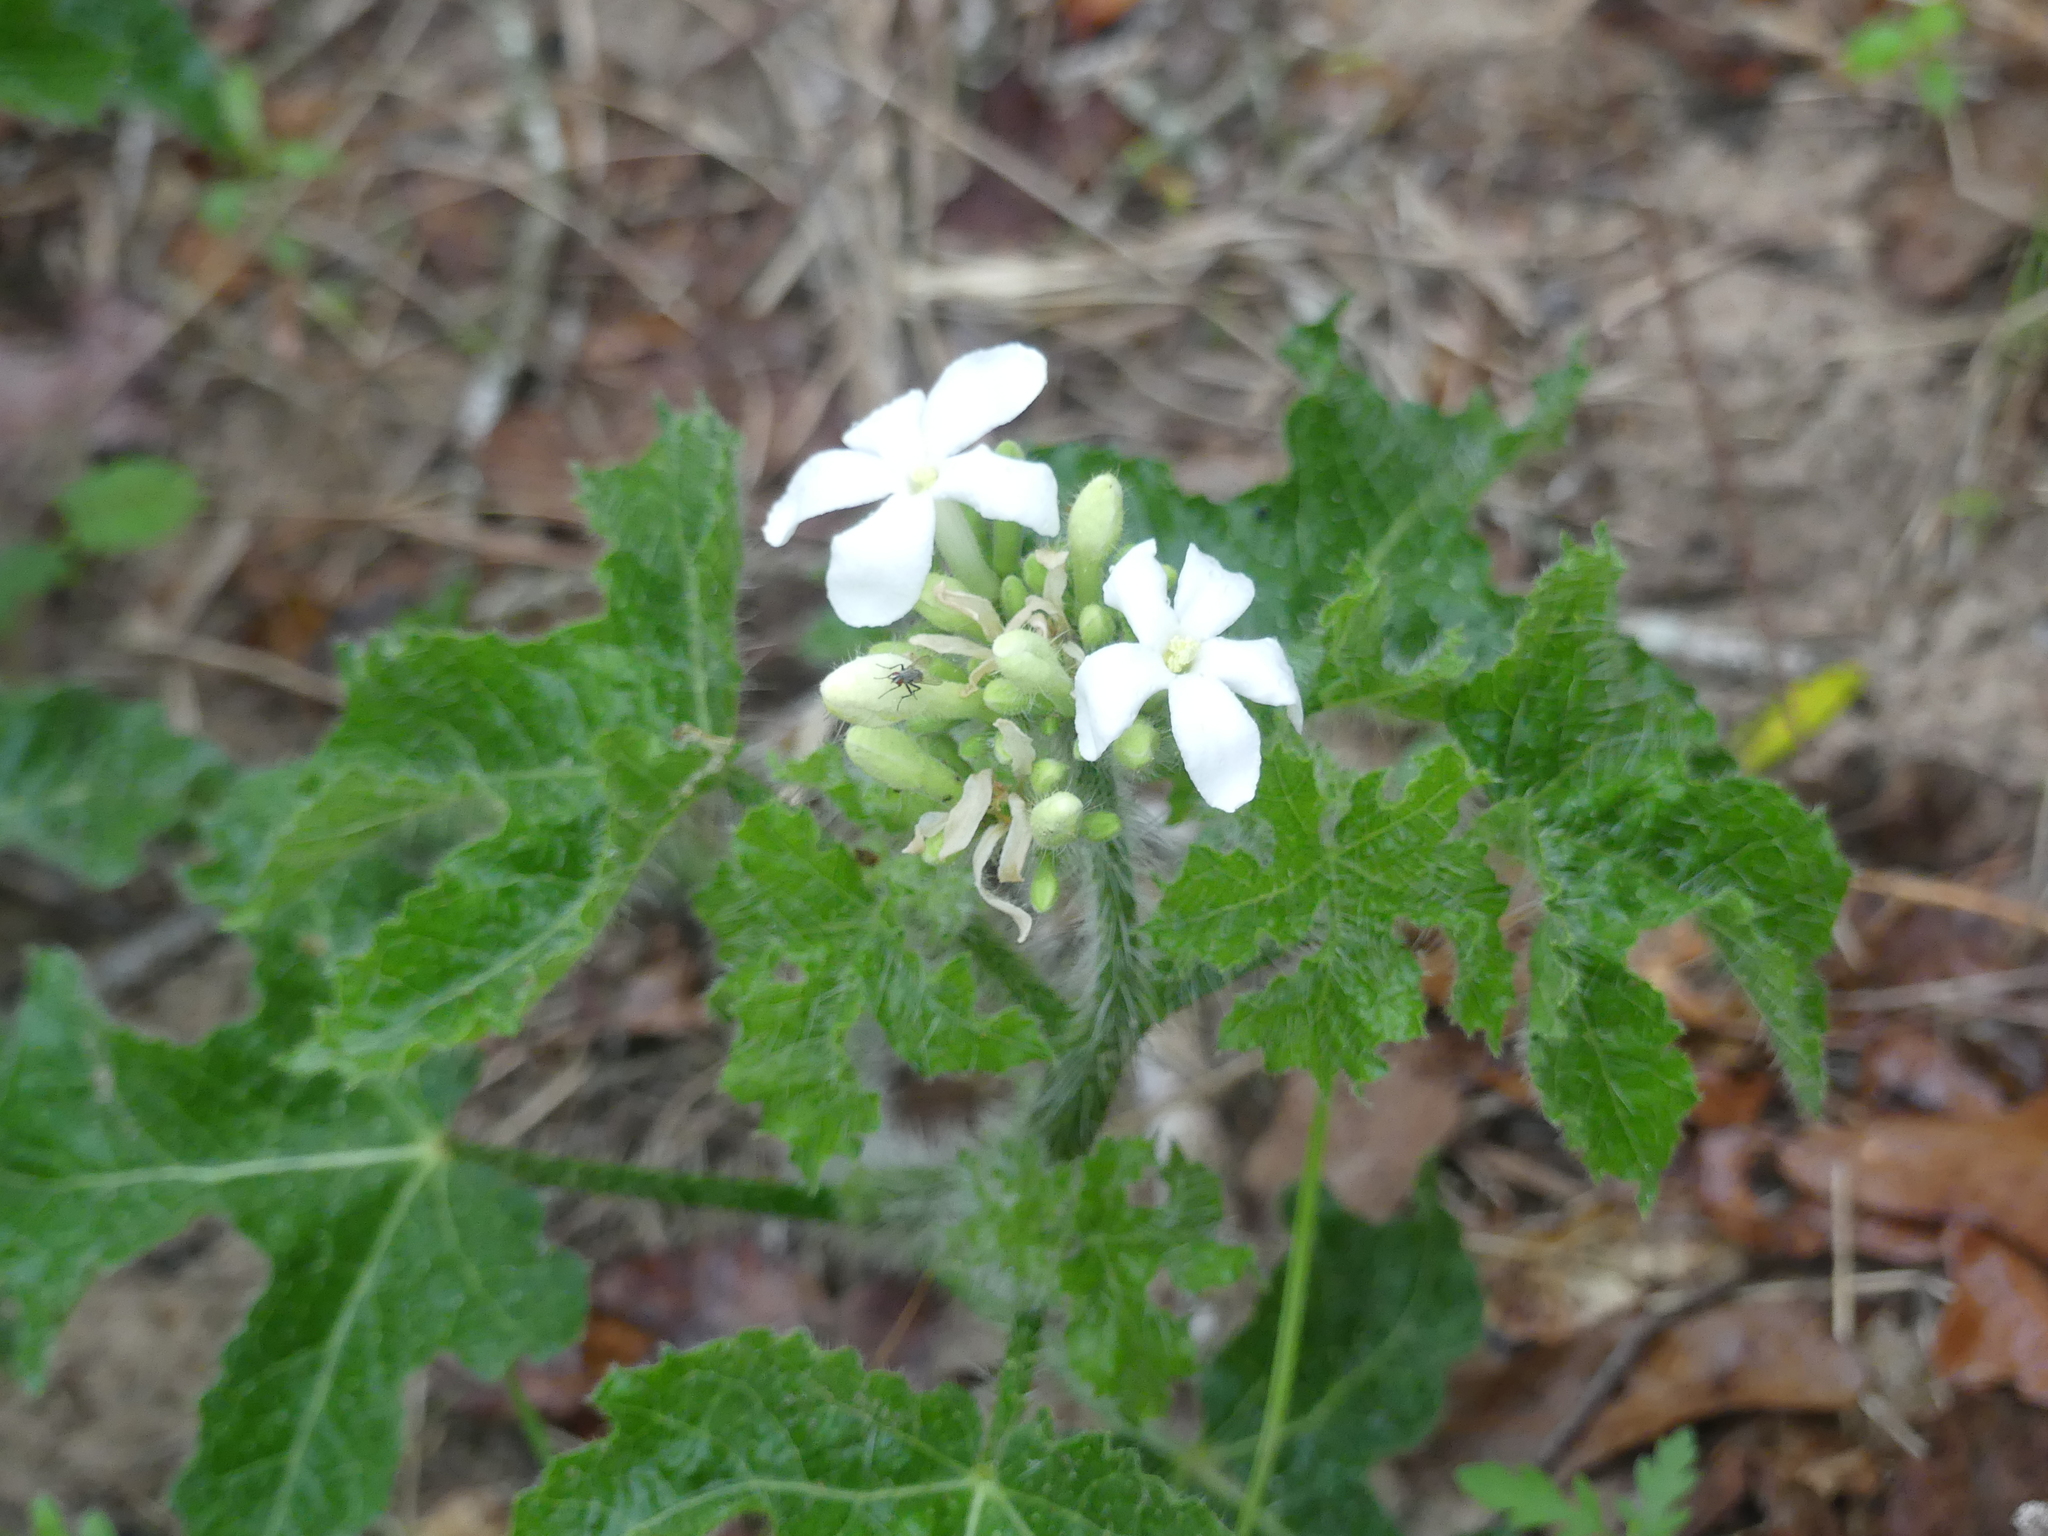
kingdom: Plantae
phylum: Tracheophyta
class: Magnoliopsida
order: Malpighiales
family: Euphorbiaceae
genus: Cnidoscolus
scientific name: Cnidoscolus texanus
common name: Texas bull-nettle
